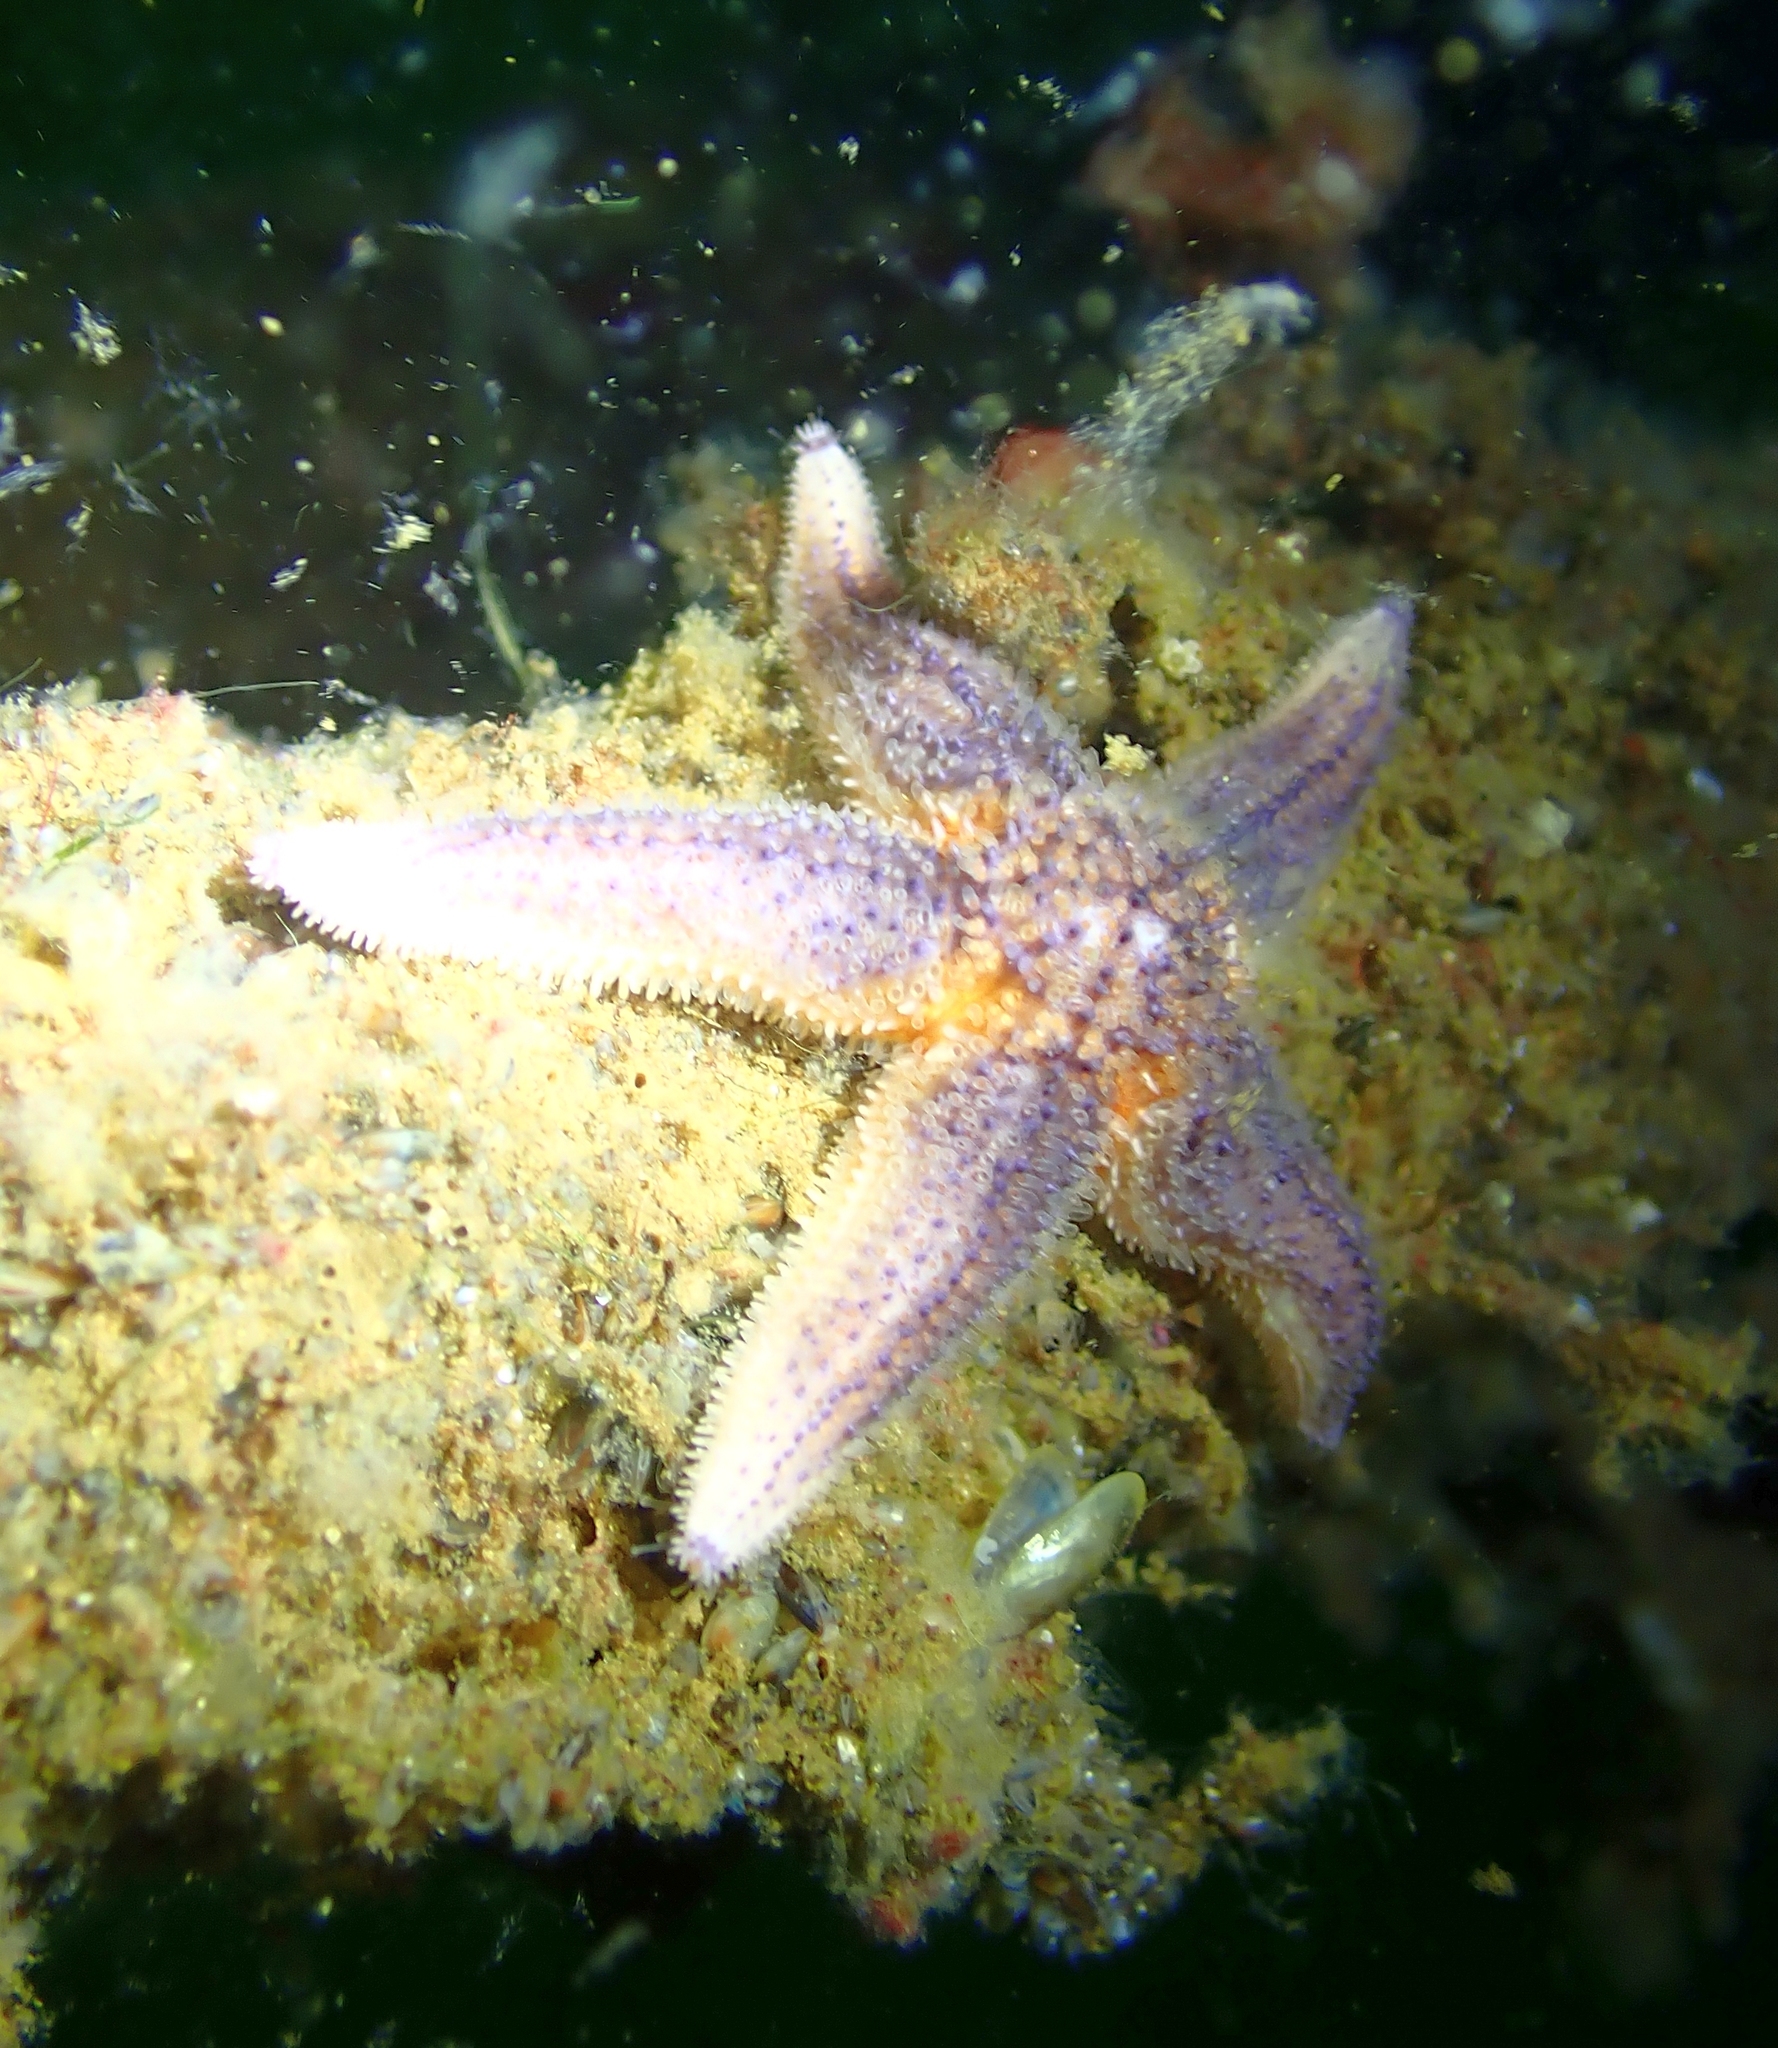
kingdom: Animalia
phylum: Echinodermata
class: Asteroidea
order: Forcipulatida
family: Asteriidae
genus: Asterias
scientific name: Asterias rubens
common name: Common starfish
